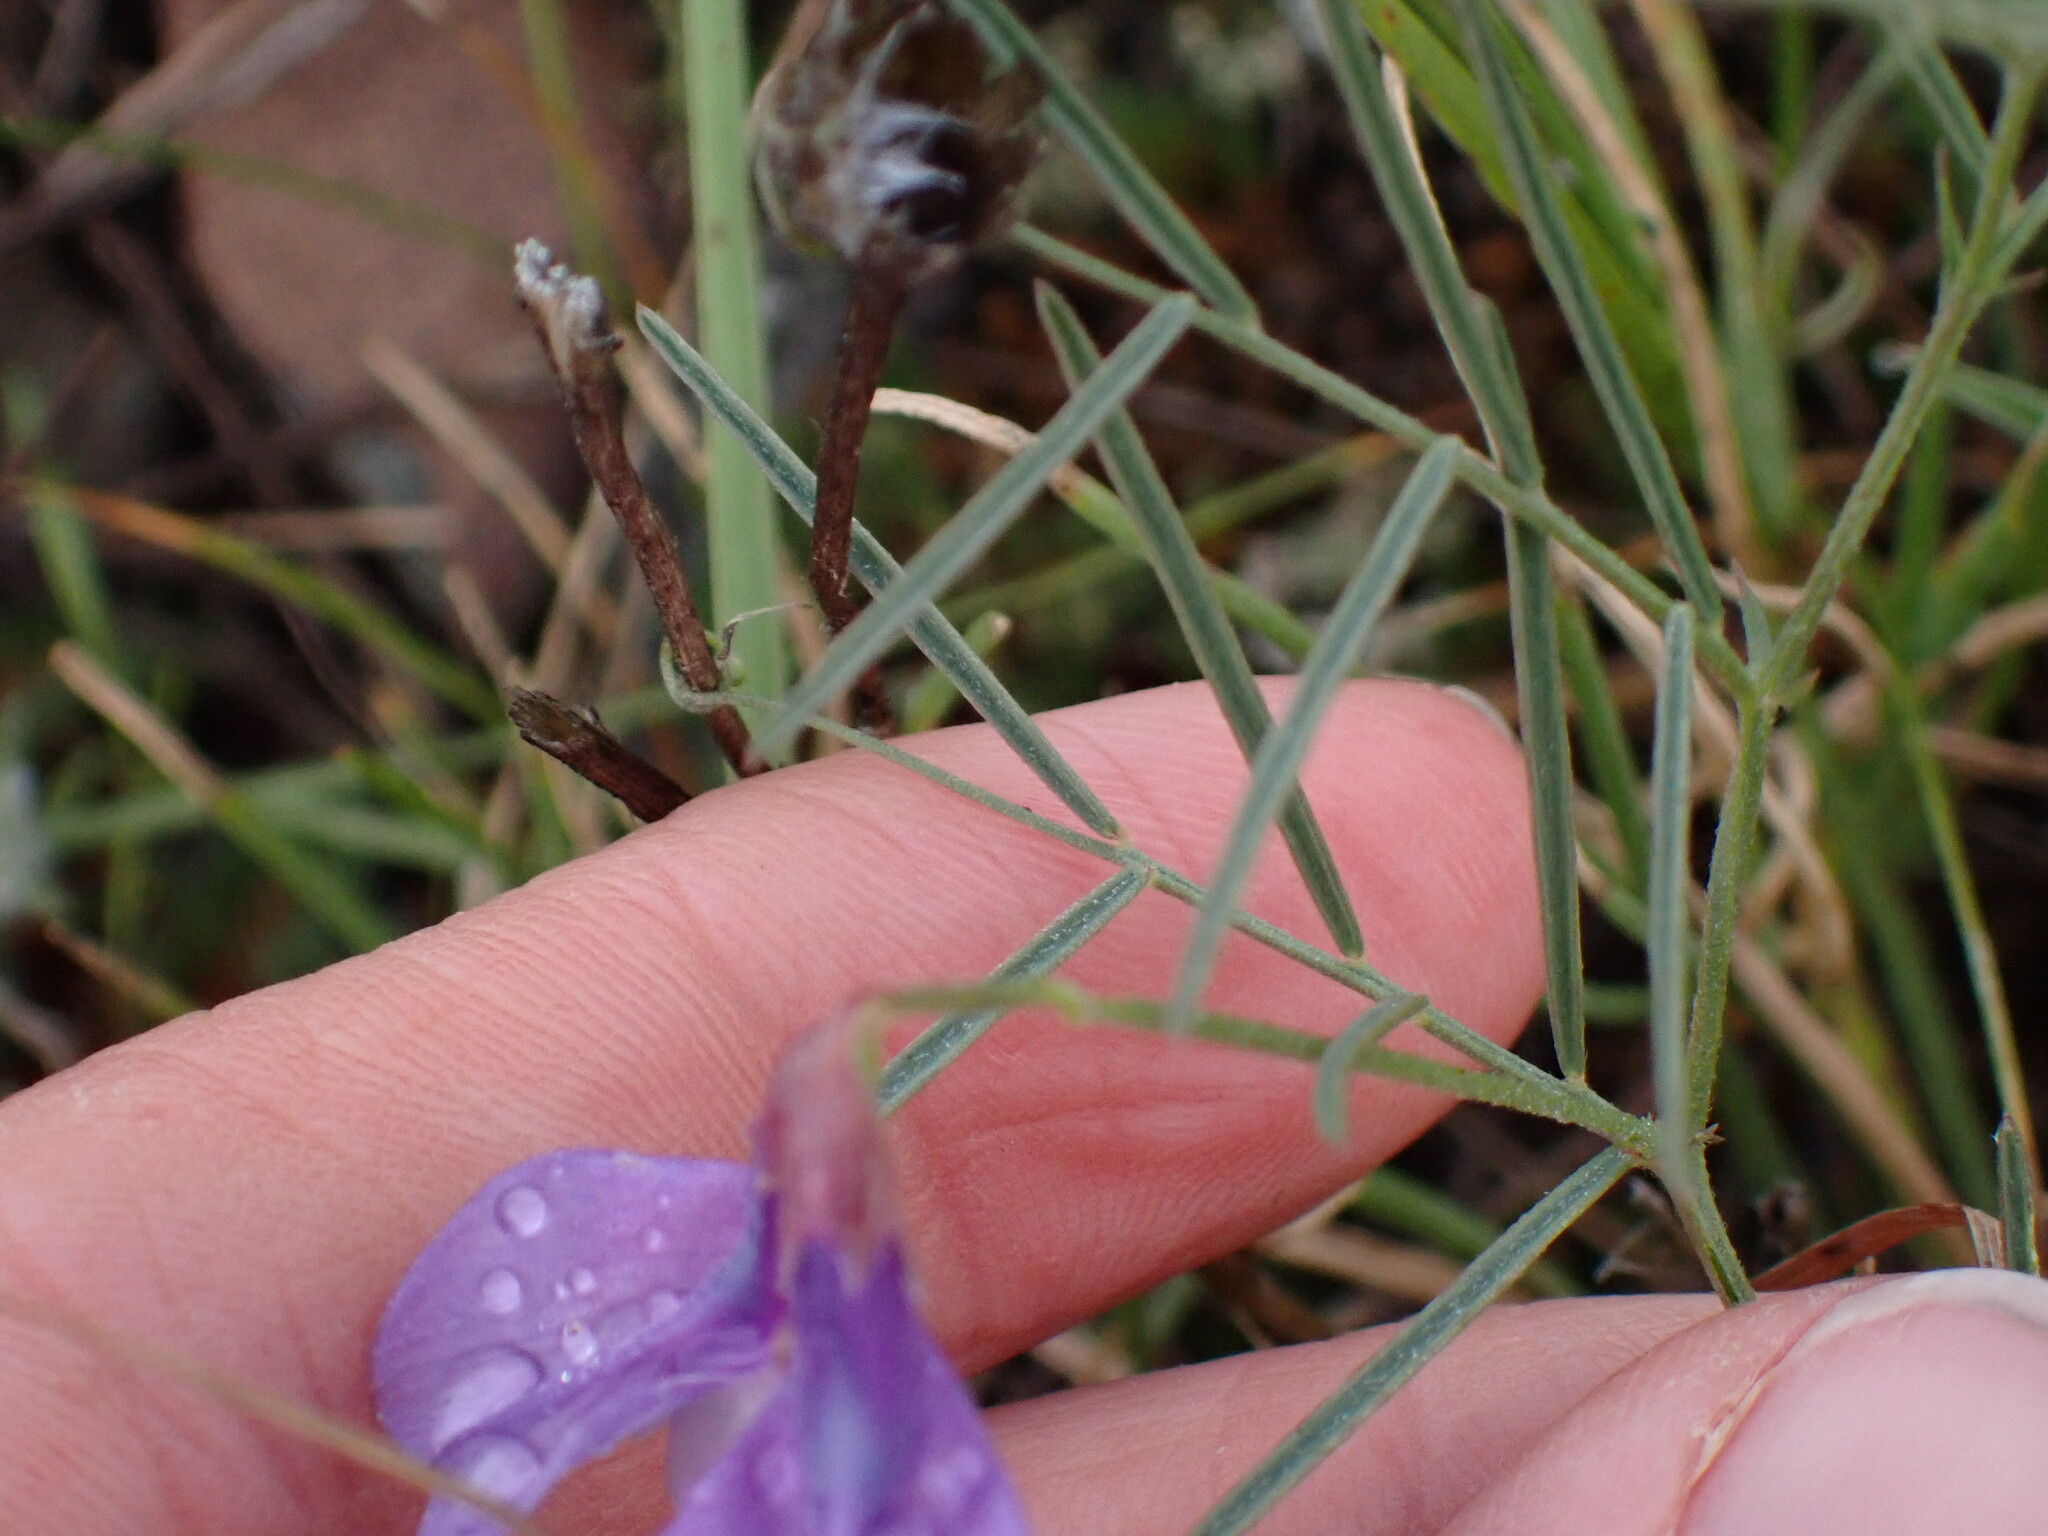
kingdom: Plantae
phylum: Tracheophyta
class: Magnoliopsida
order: Fabales
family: Fabaceae
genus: Vicia
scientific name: Vicia americana
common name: American vetch
